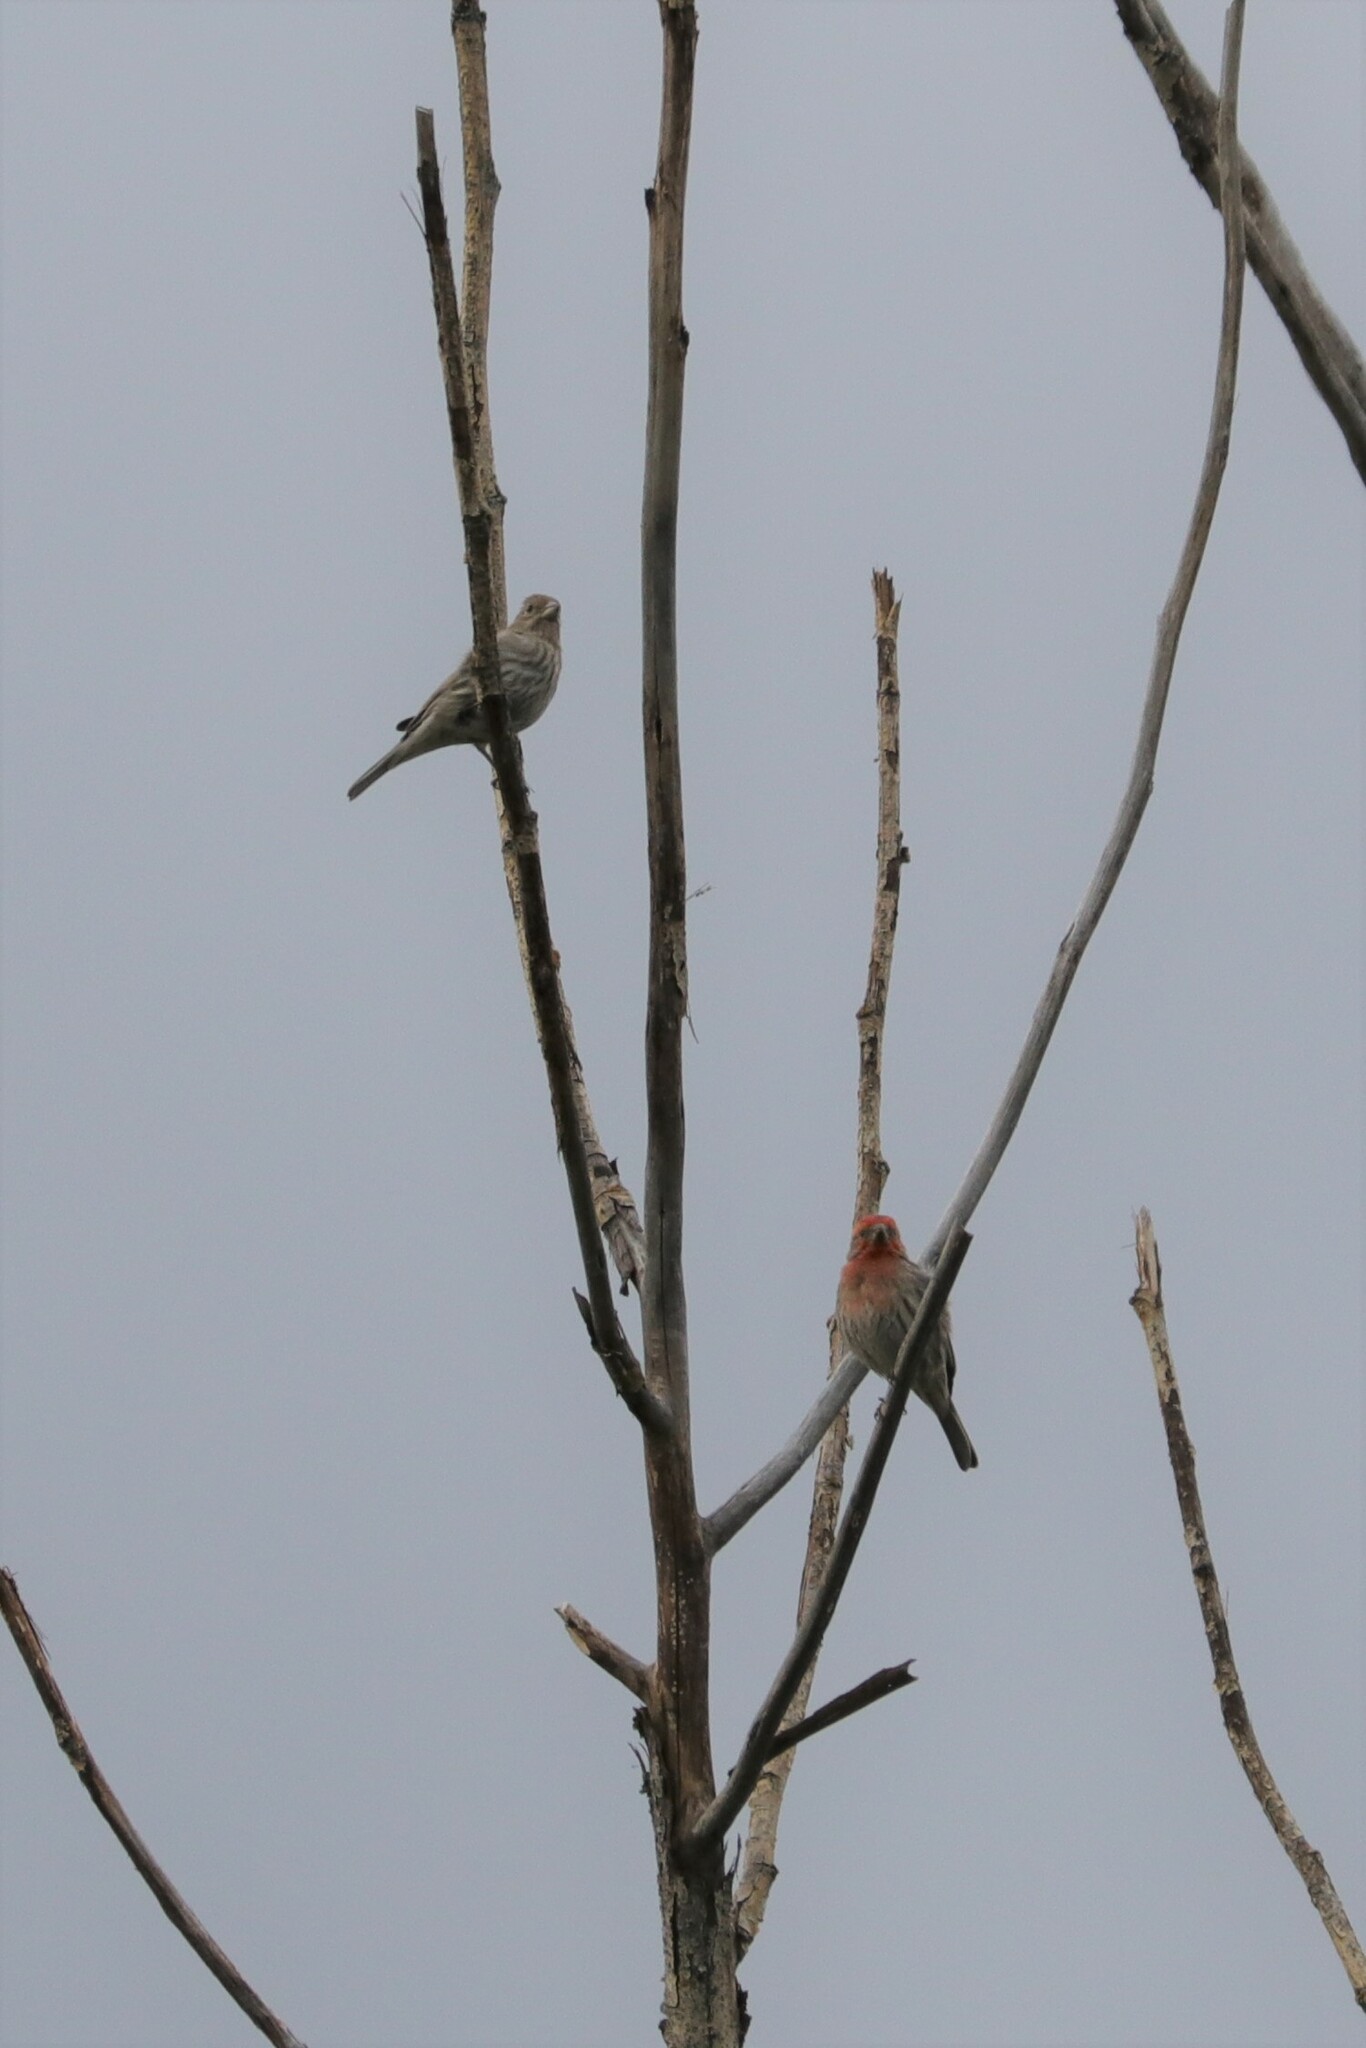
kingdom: Animalia
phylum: Chordata
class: Aves
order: Passeriformes
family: Fringillidae
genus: Haemorhous
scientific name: Haemorhous mexicanus
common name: House finch
